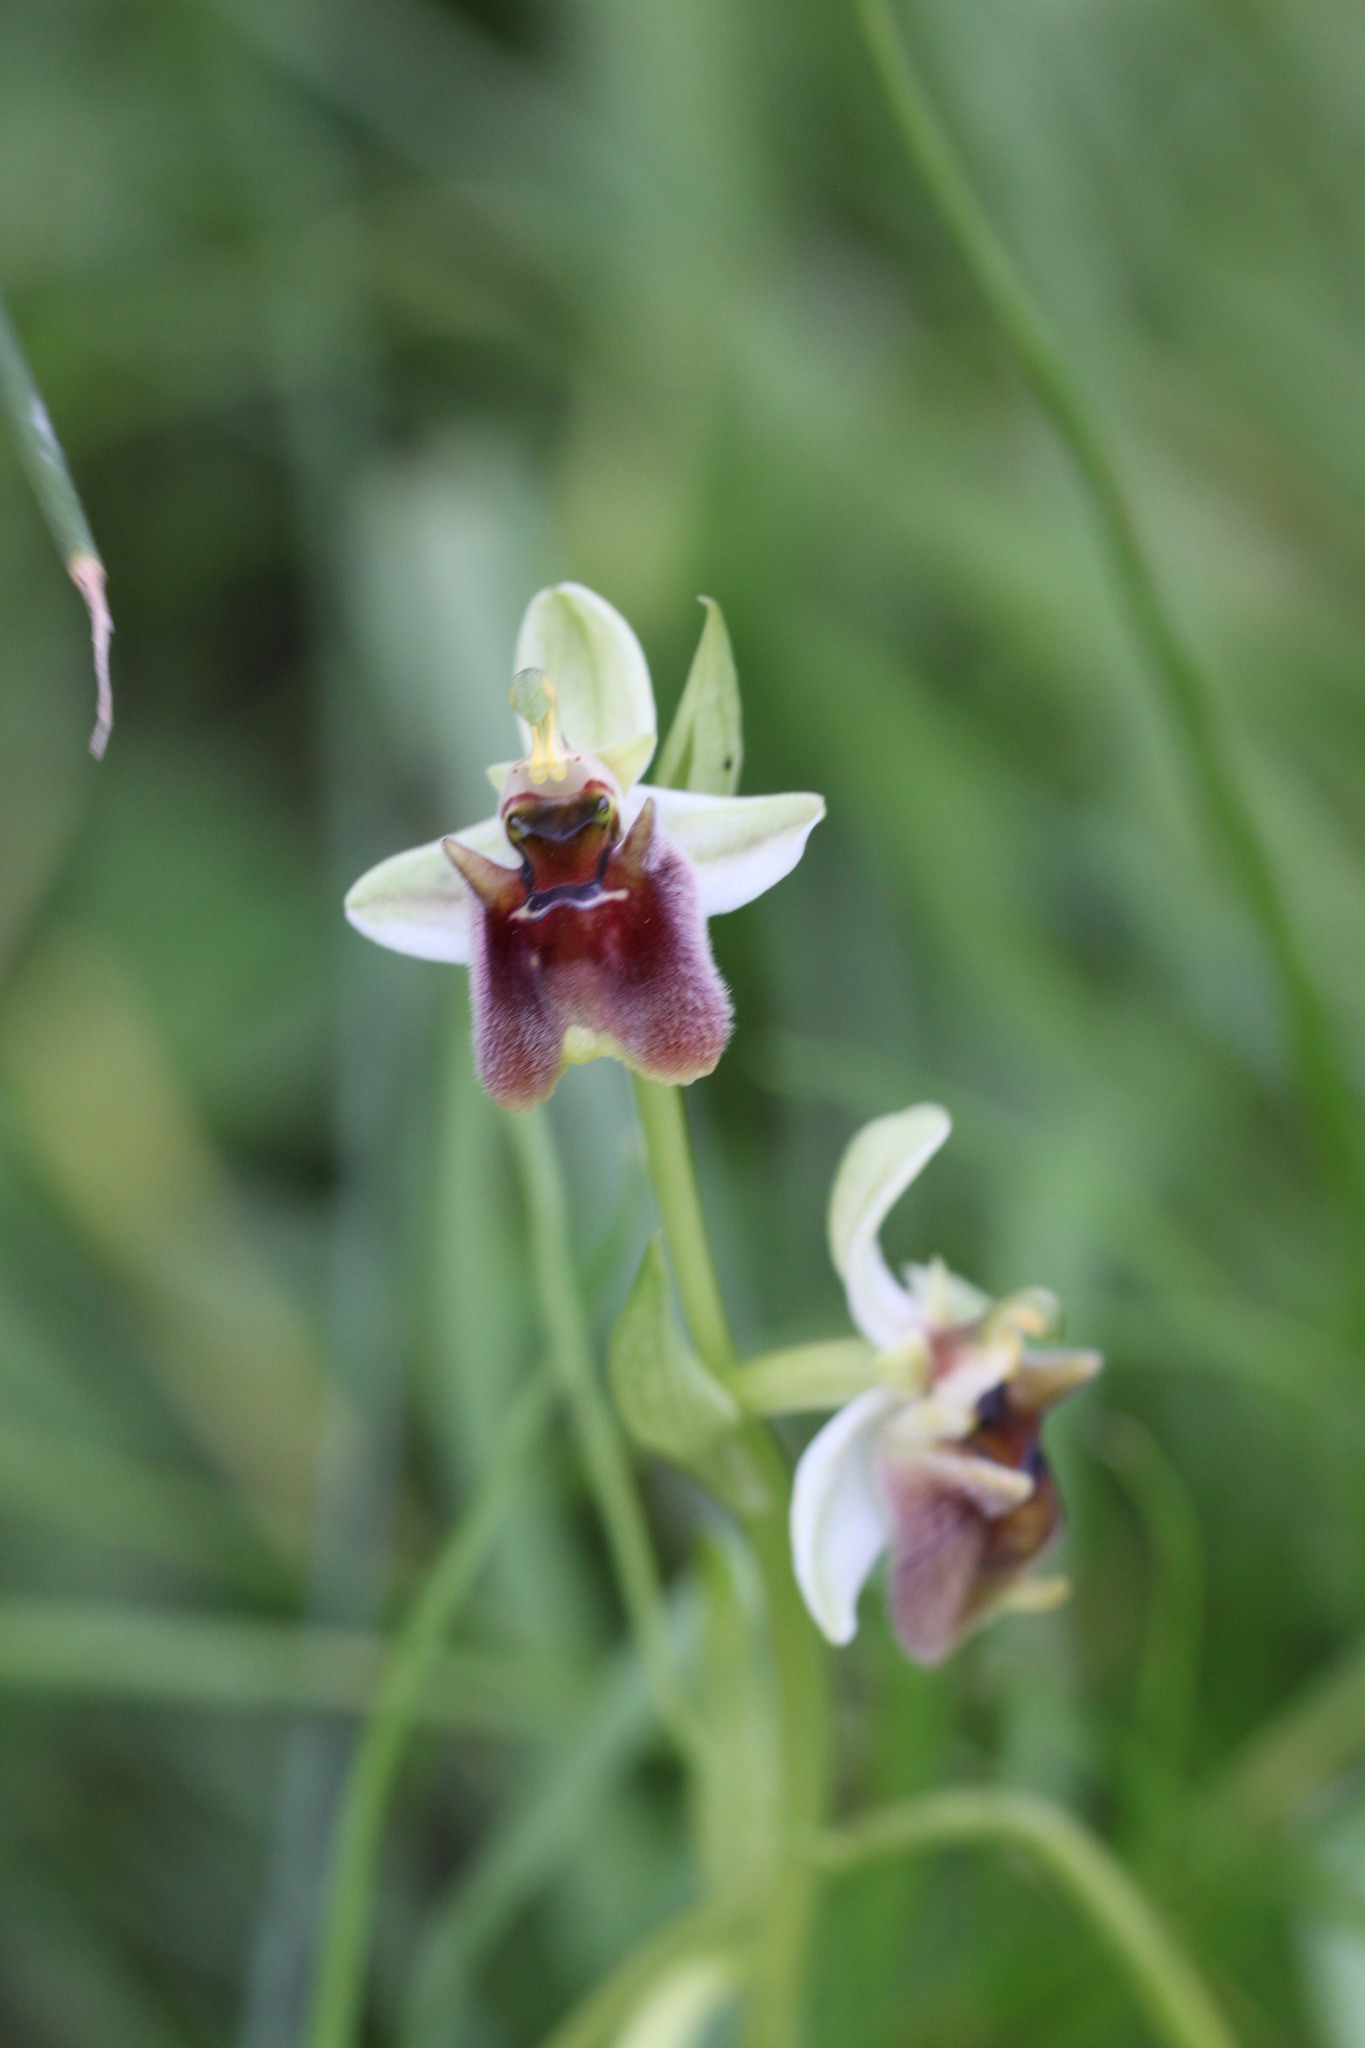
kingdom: Plantae
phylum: Tracheophyta
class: Liliopsida
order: Asparagales
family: Orchidaceae
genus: Ophrys
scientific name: Ophrys bornmuelleri
